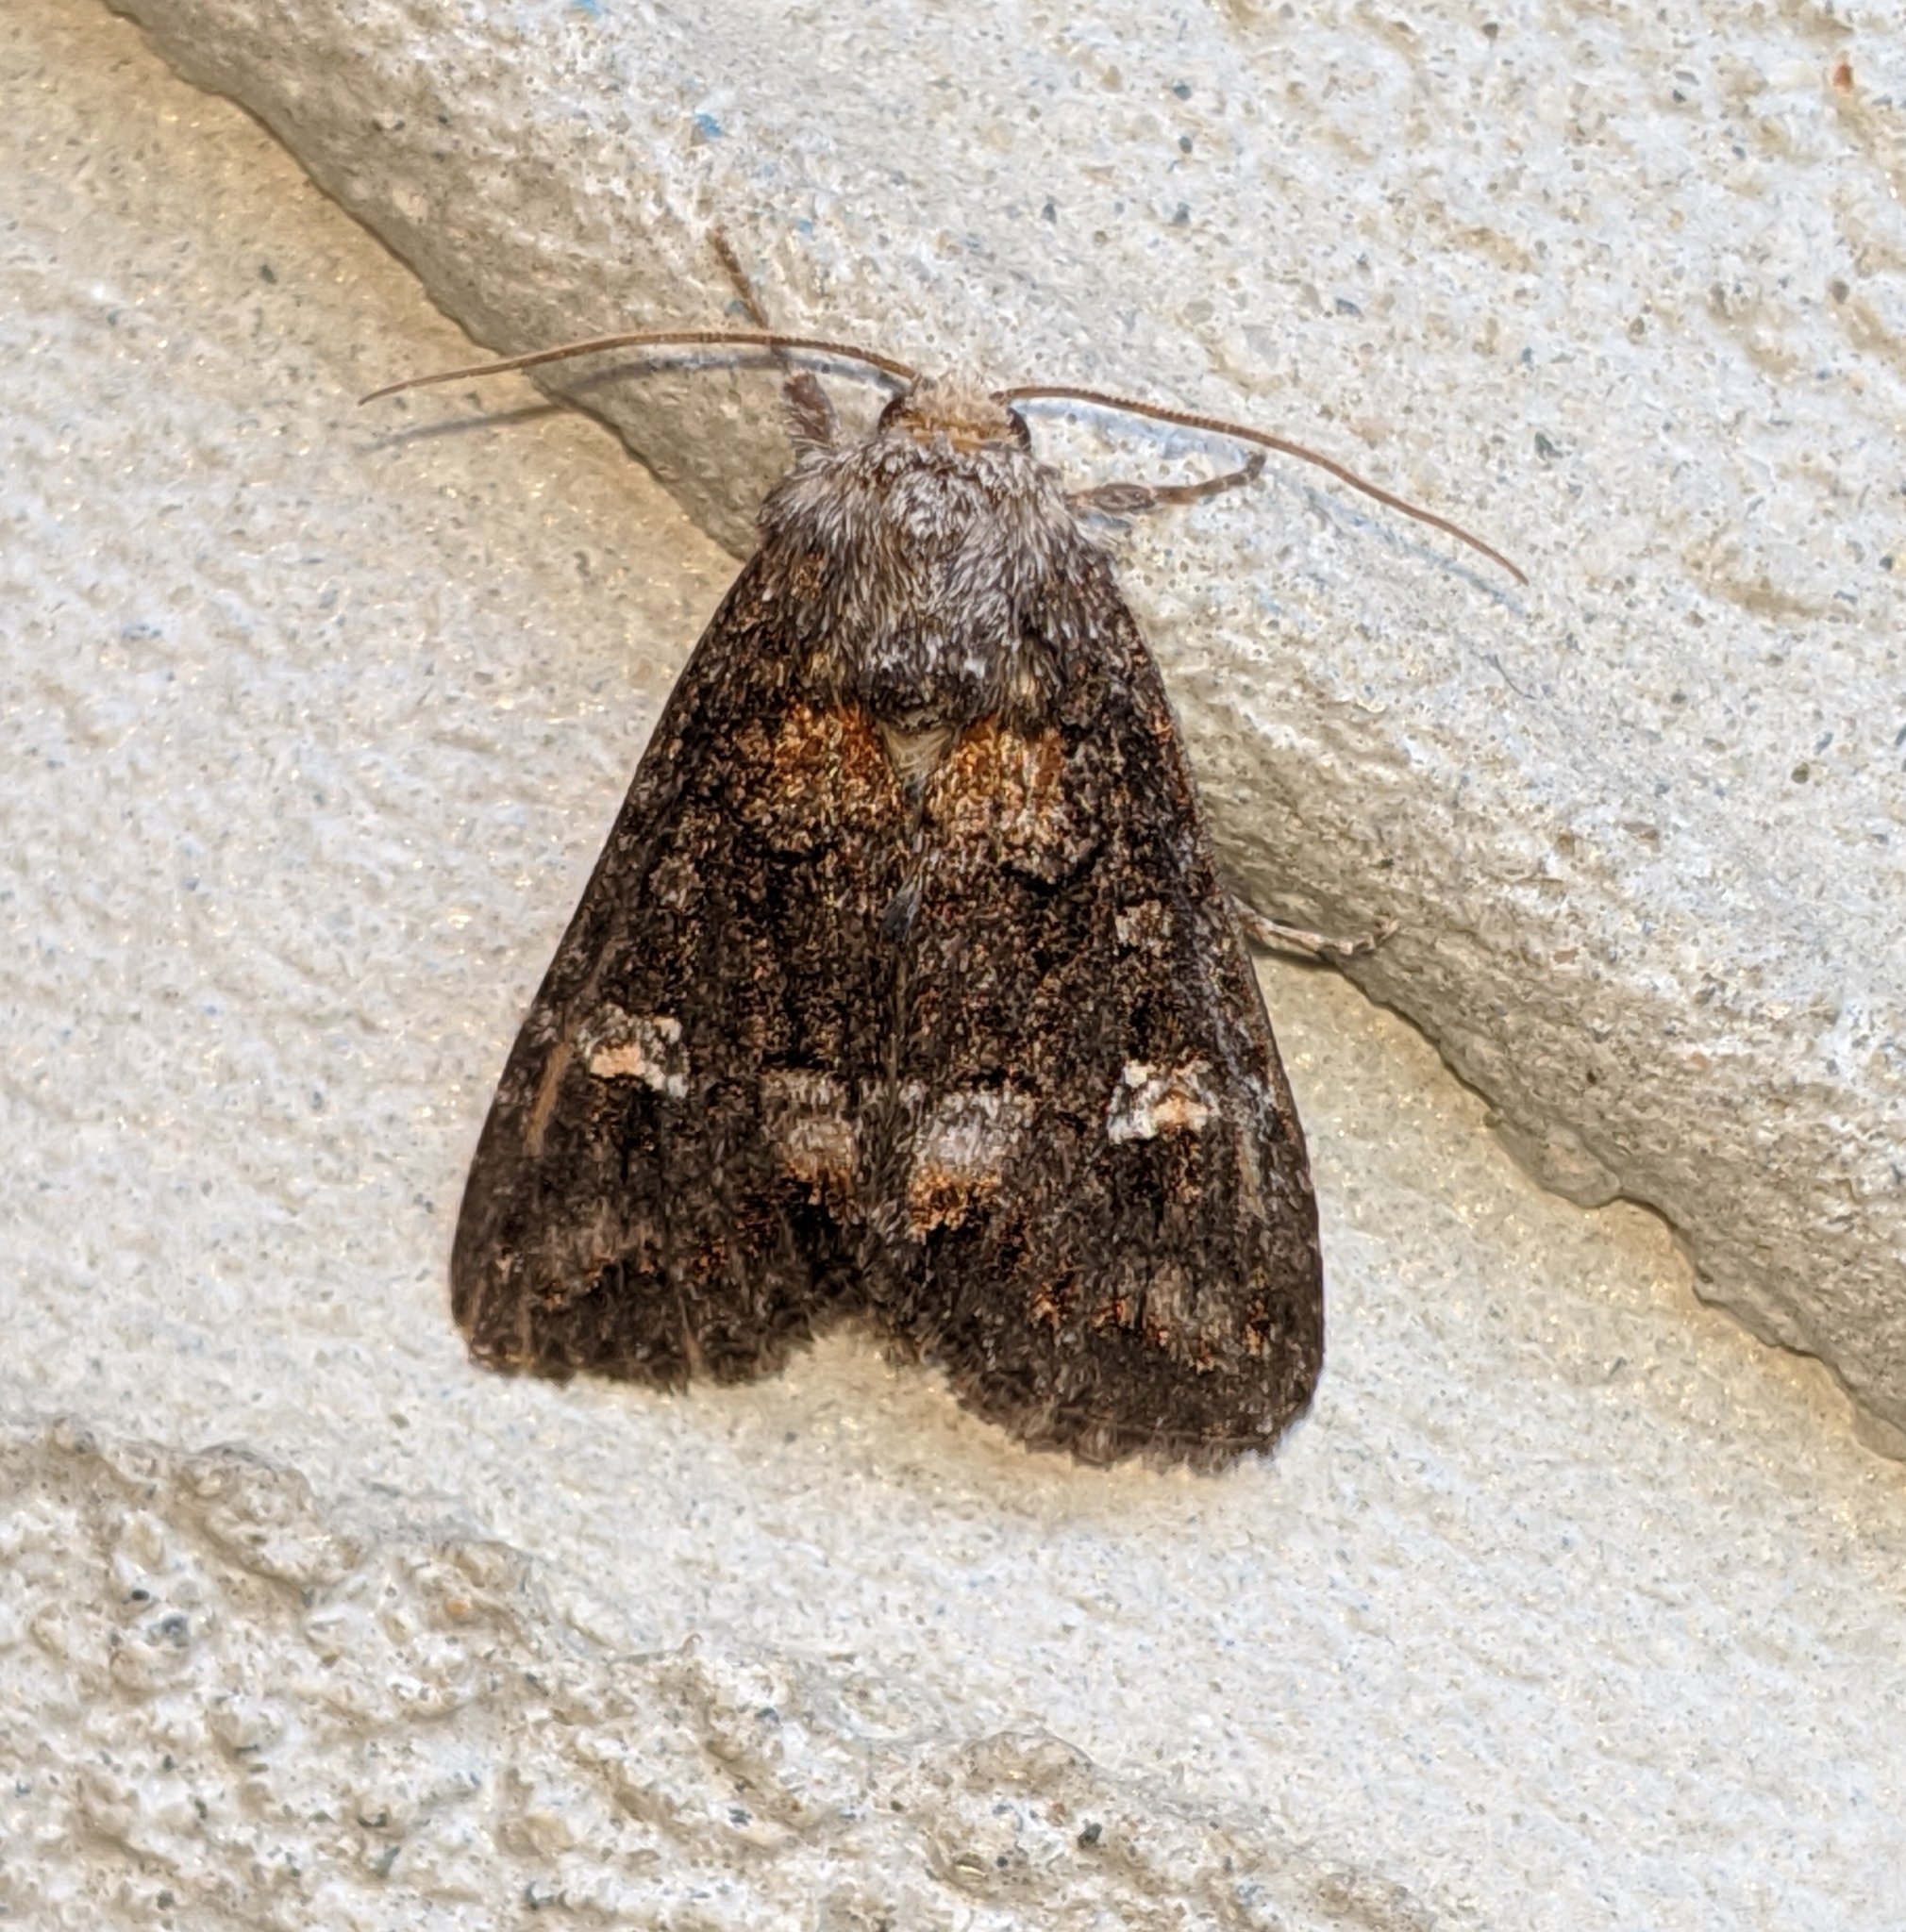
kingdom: Animalia
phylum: Arthropoda
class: Insecta
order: Lepidoptera
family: Noctuidae
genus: Spiramater
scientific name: Spiramater lutra
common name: Otter spiramater moth
